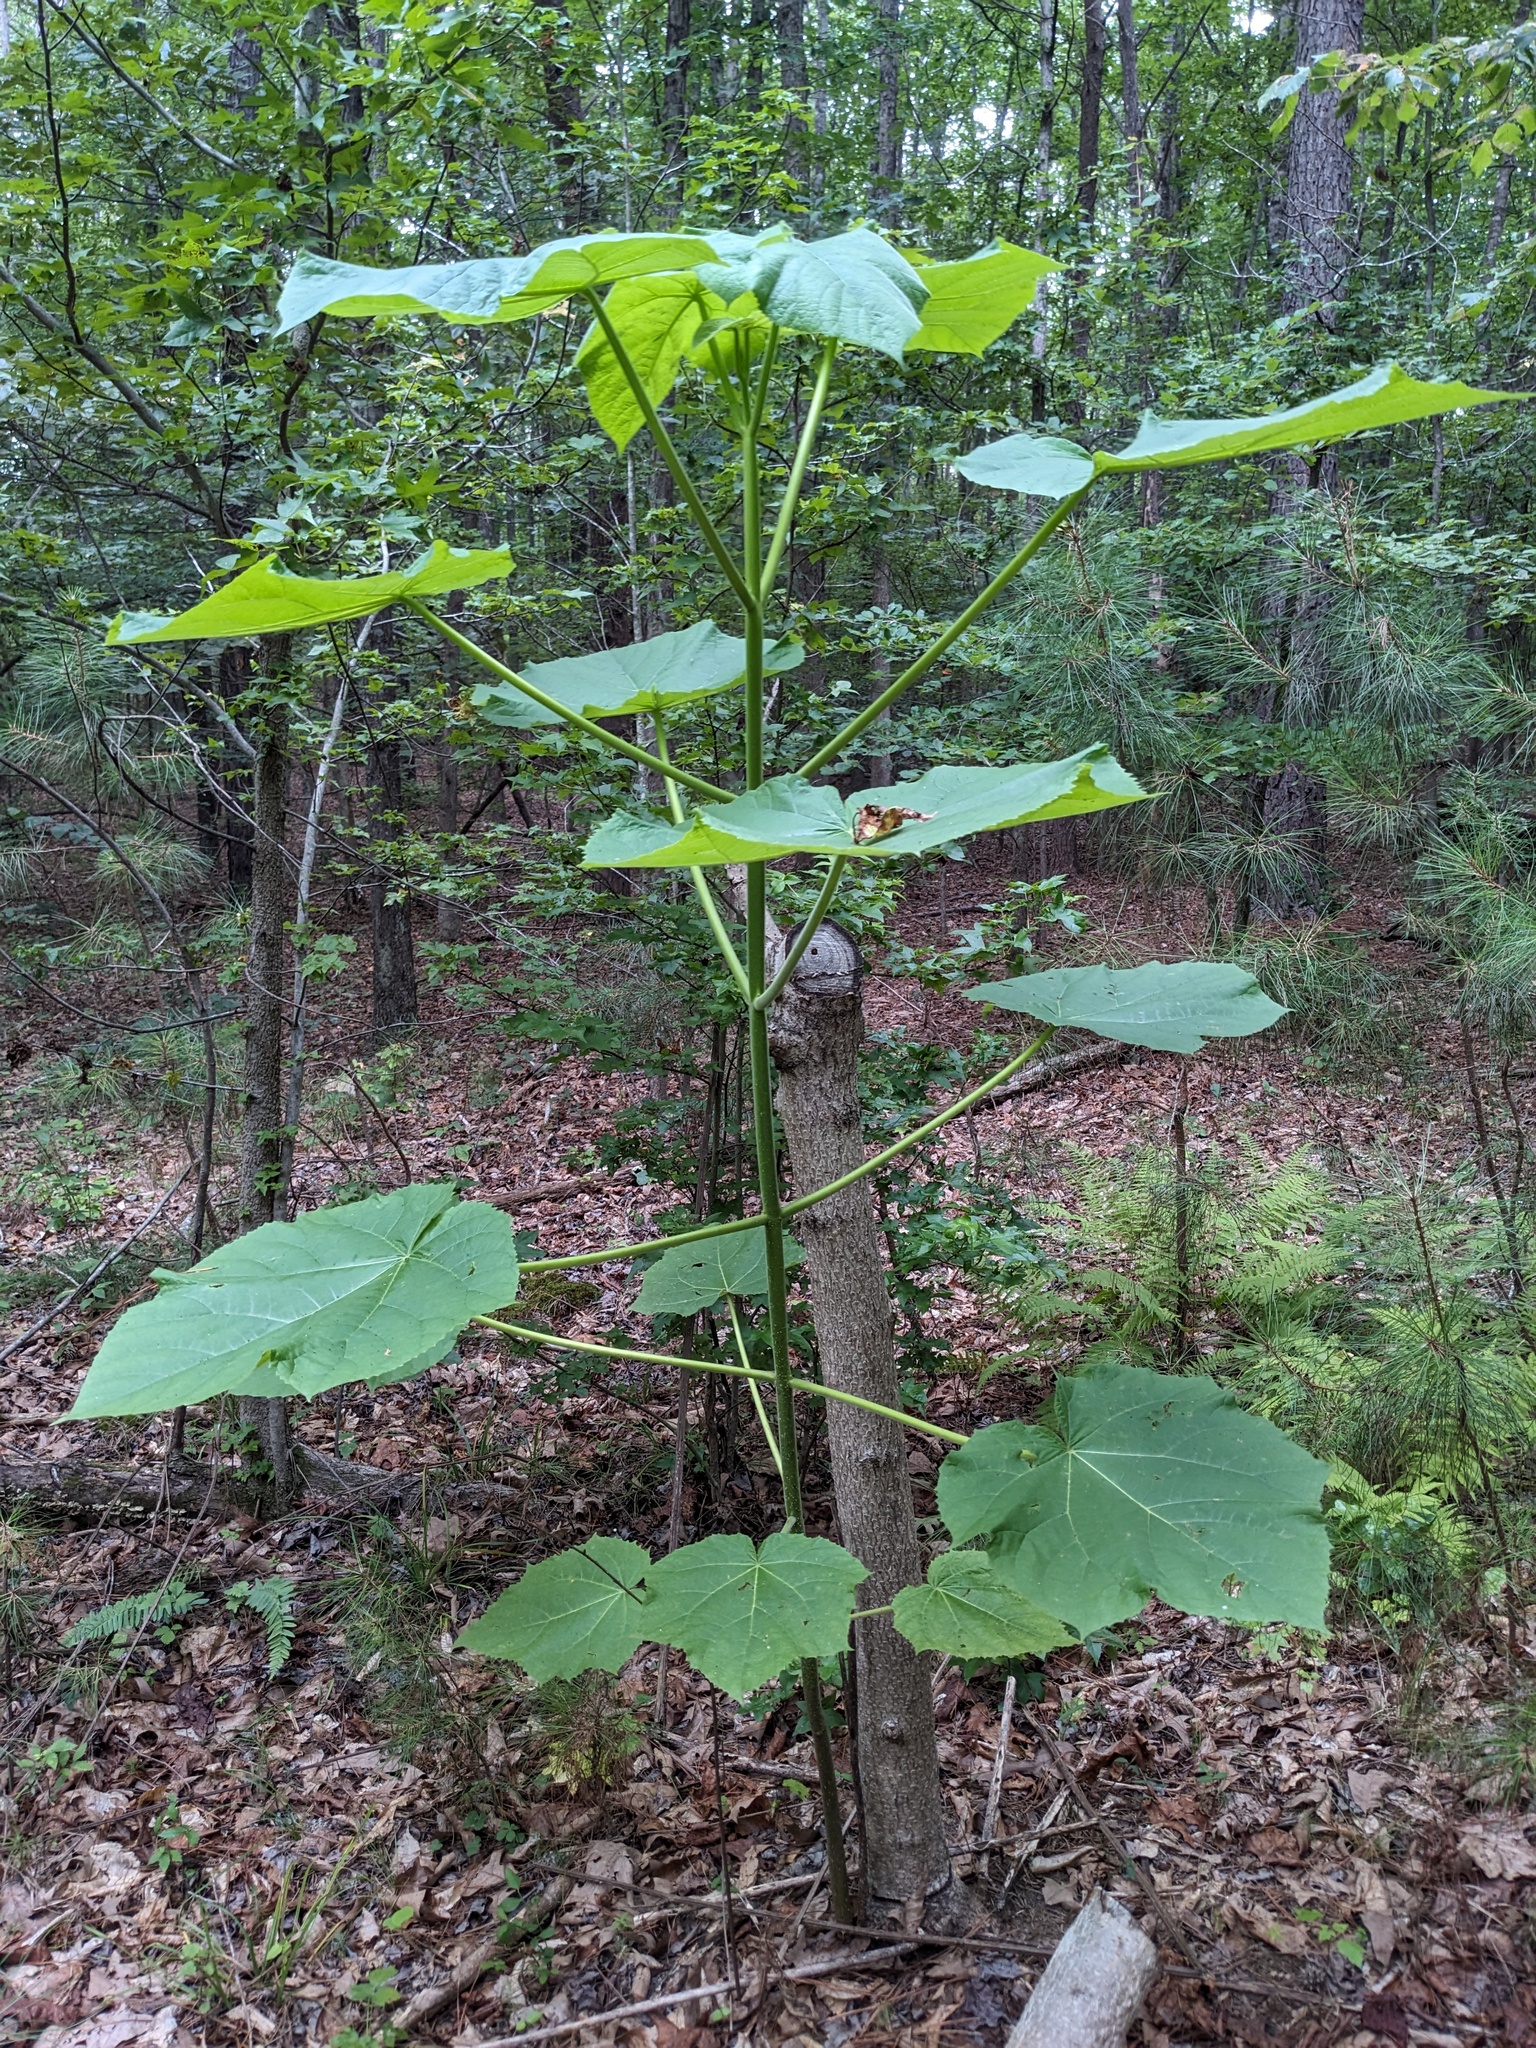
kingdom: Plantae
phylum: Tracheophyta
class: Magnoliopsida
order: Lamiales
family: Paulowniaceae
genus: Paulownia
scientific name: Paulownia tomentosa
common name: Foxglove-tree
